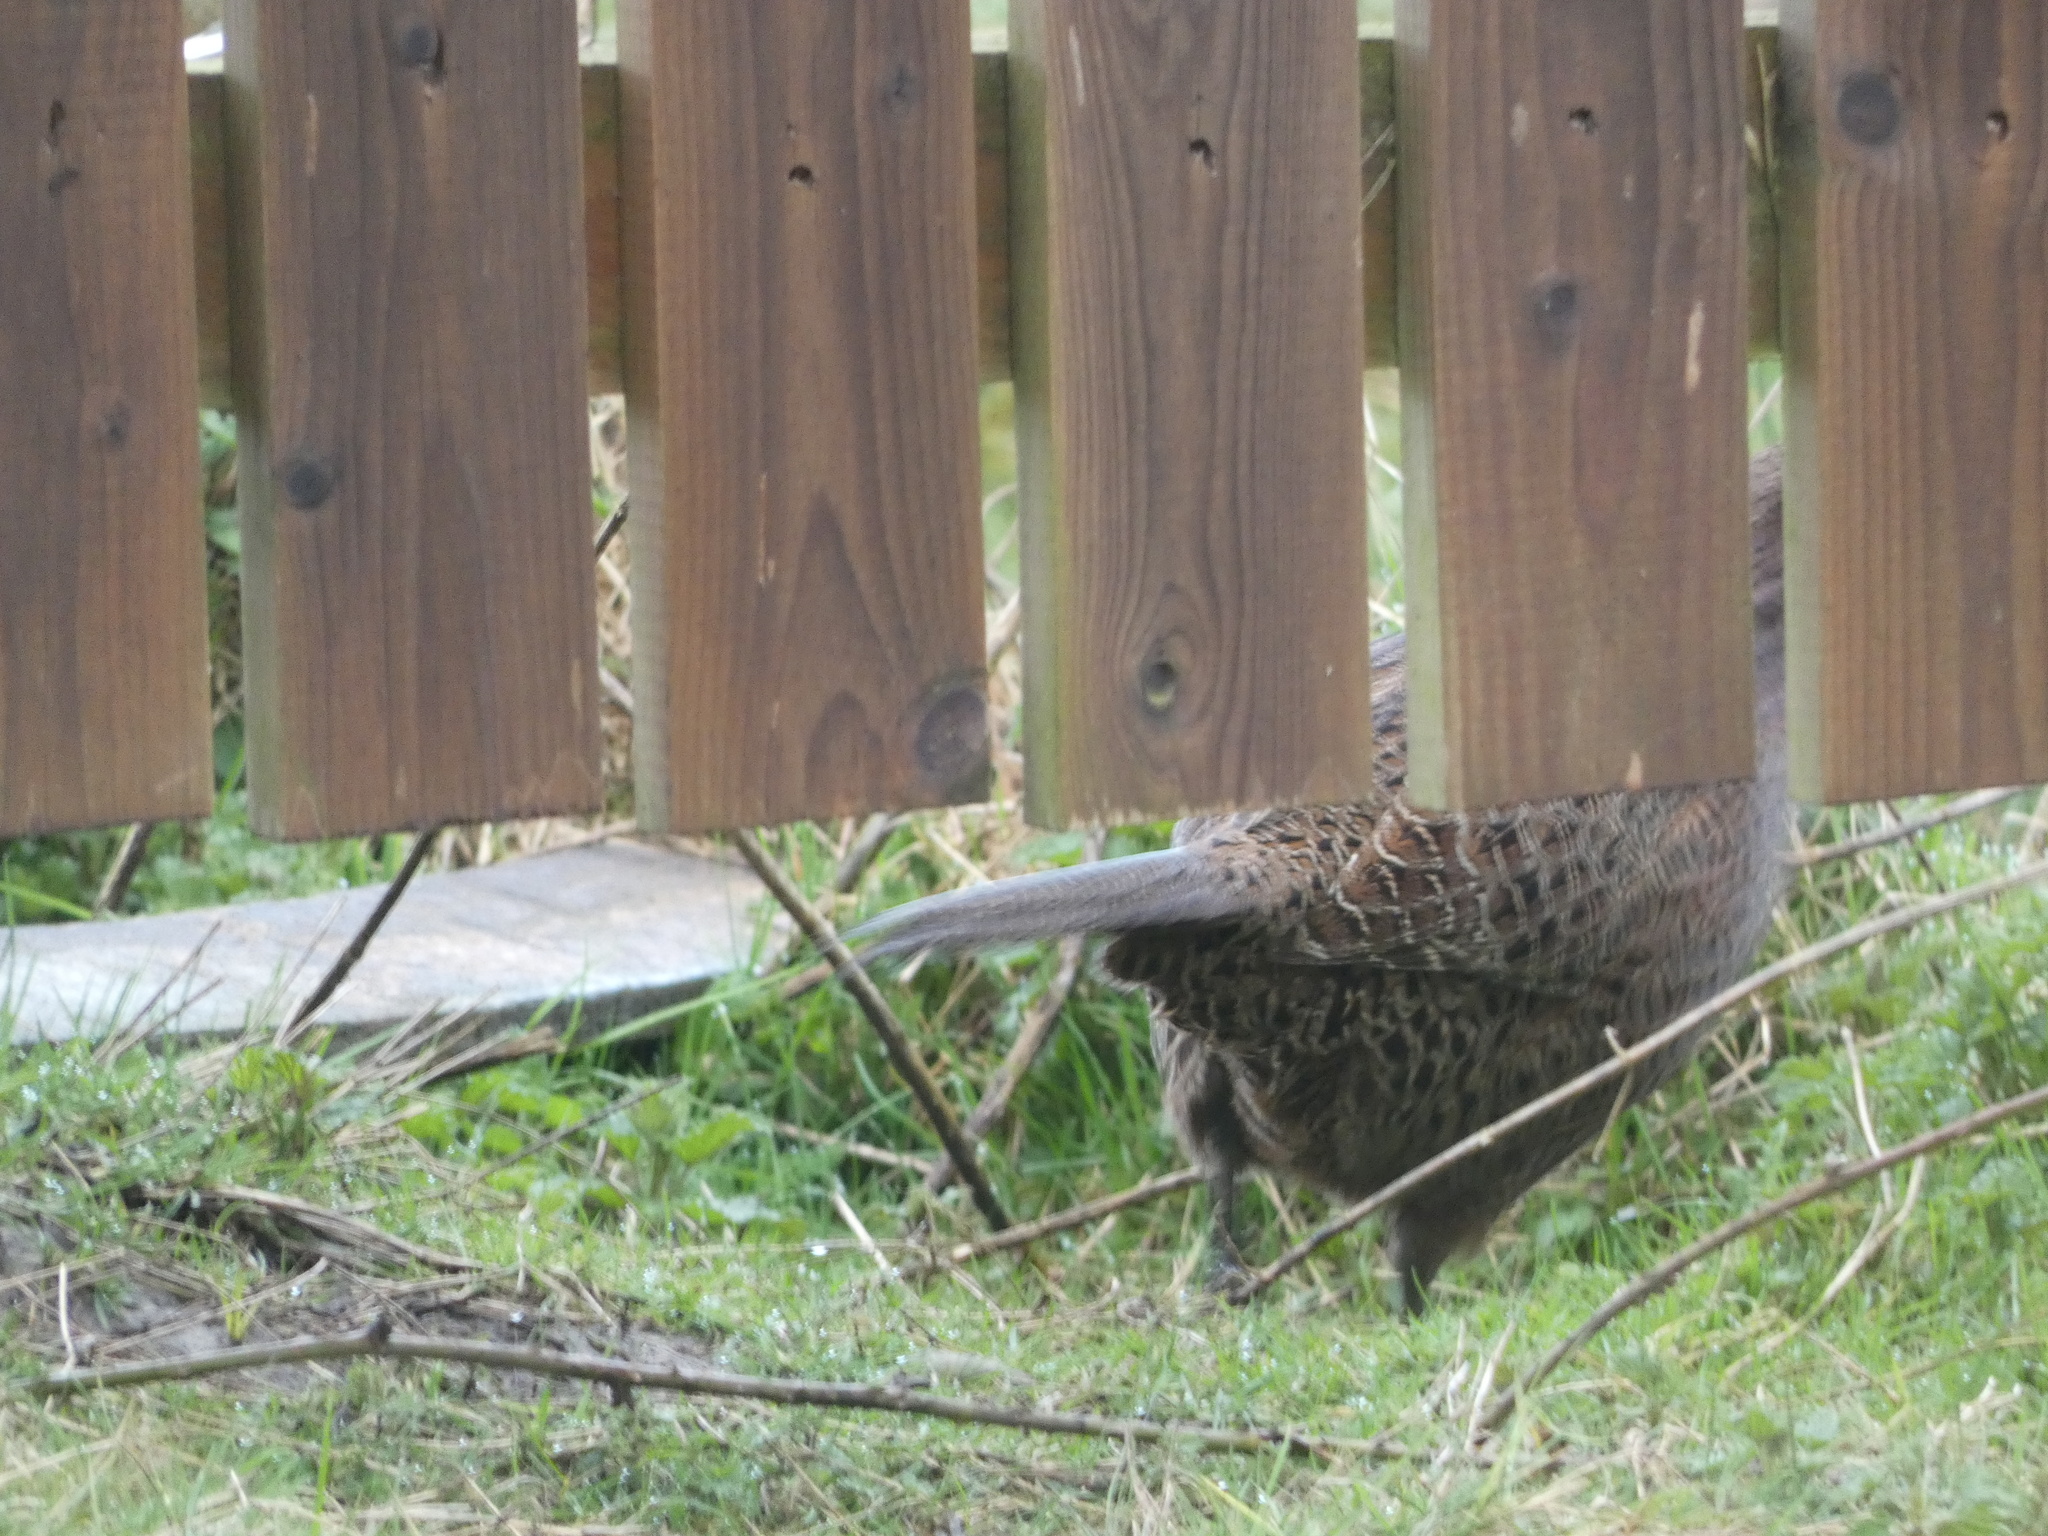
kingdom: Animalia
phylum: Chordata
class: Aves
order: Galliformes
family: Phasianidae
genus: Phasianus
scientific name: Phasianus colchicus
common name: Common pheasant
